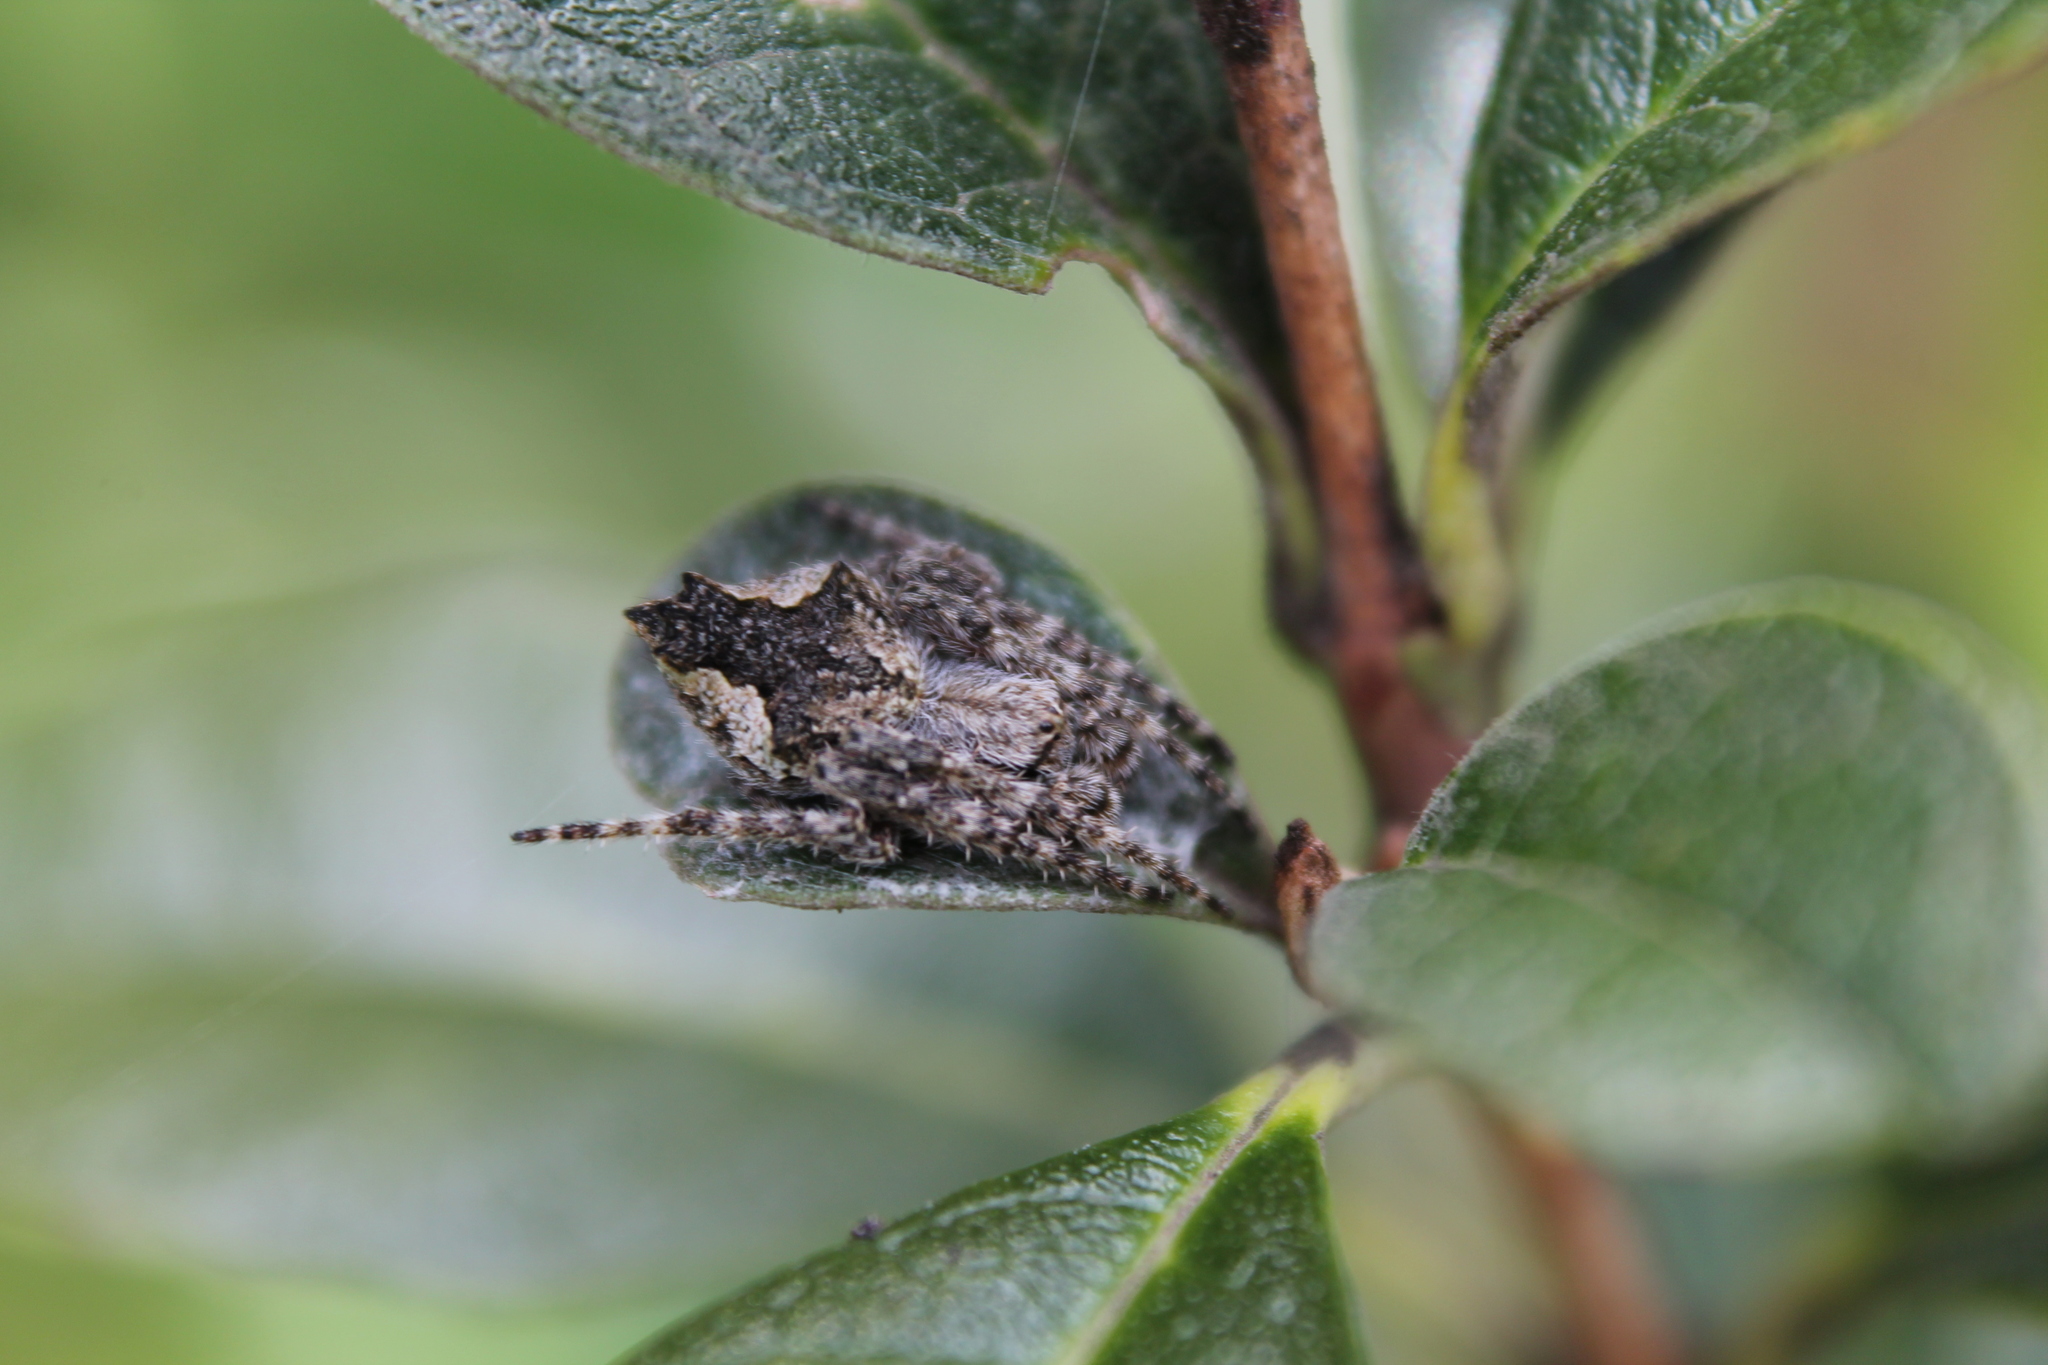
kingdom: Animalia
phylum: Arthropoda
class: Arachnida
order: Araneae
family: Araneidae
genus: Eriophora
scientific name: Eriophora pustulosa
